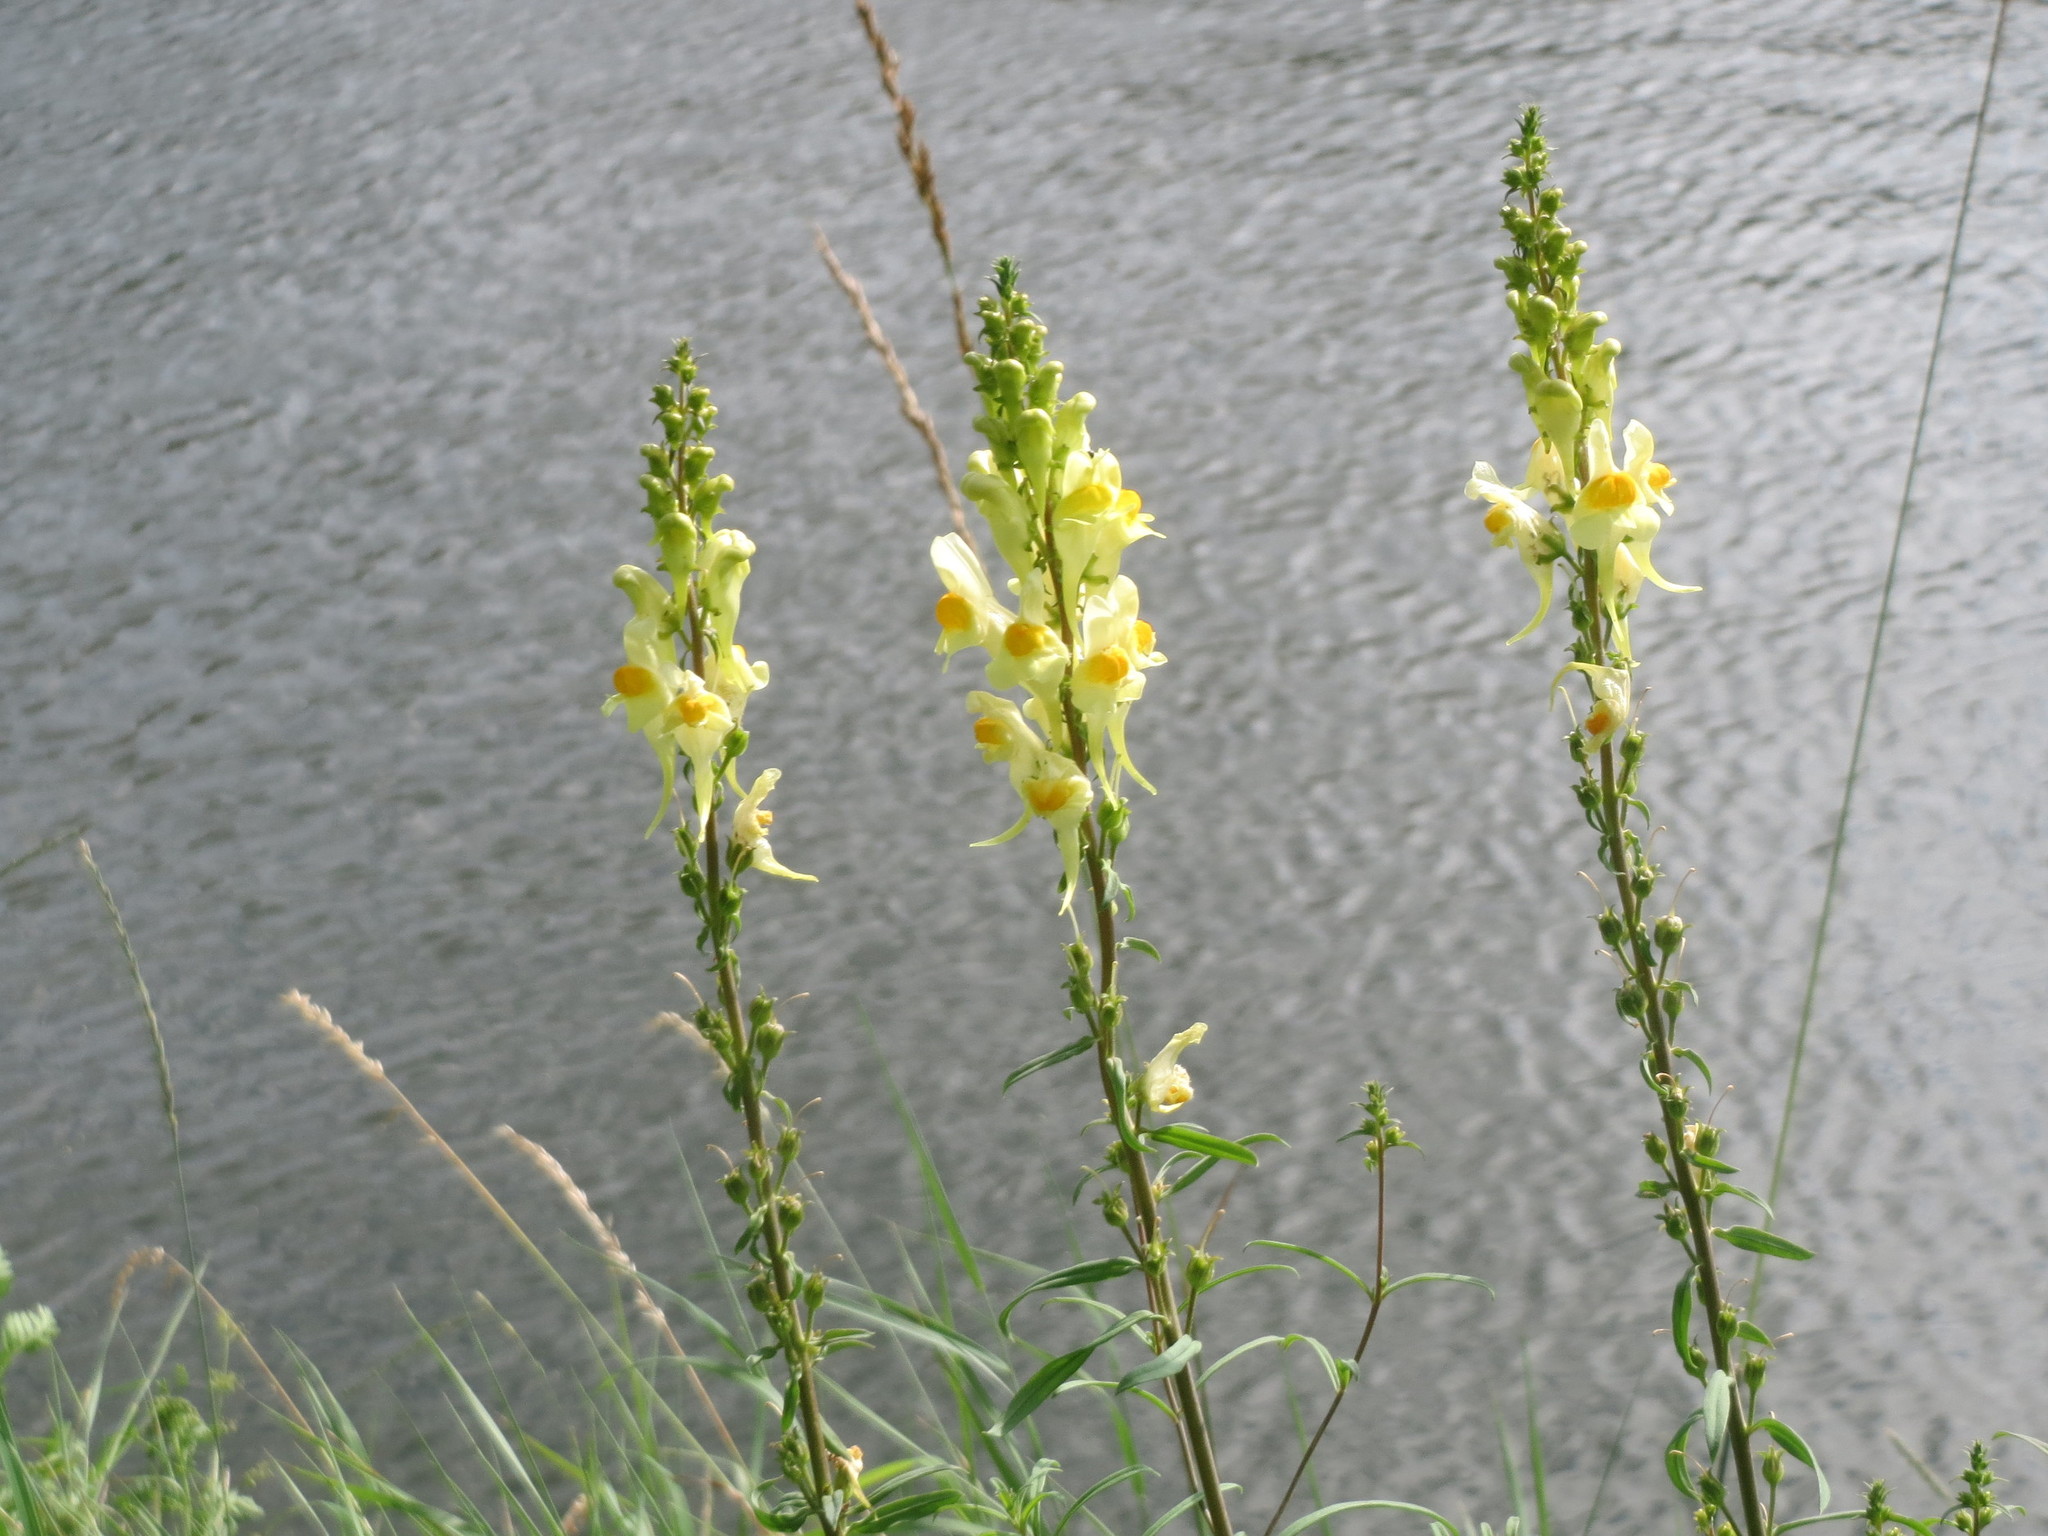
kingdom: Plantae
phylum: Tracheophyta
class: Magnoliopsida
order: Lamiales
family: Plantaginaceae
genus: Linaria
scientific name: Linaria vulgaris
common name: Butter and eggs
